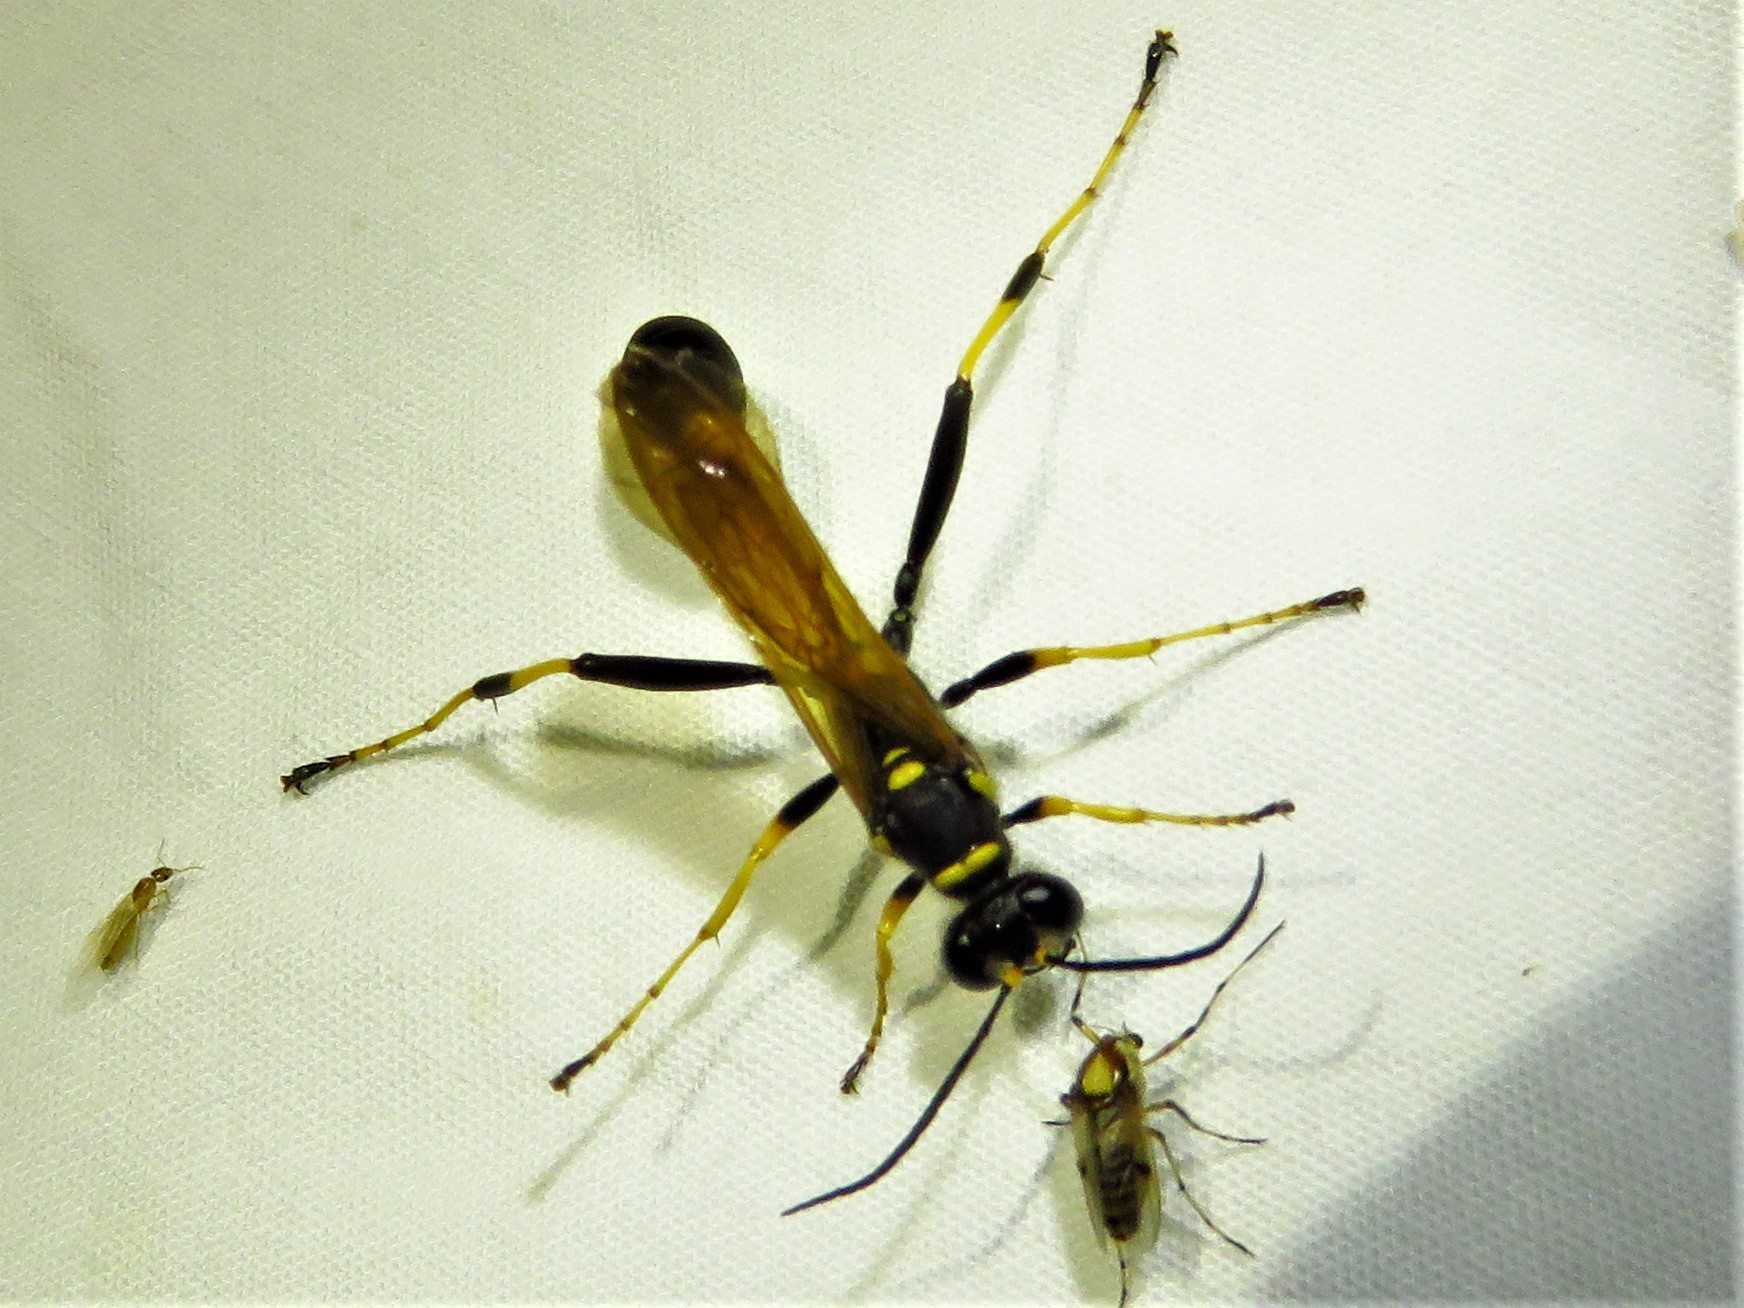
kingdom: Animalia
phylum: Arthropoda
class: Insecta
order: Hymenoptera
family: Sphecidae
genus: Sceliphron
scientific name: Sceliphron caementarium
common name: Mud dauber
